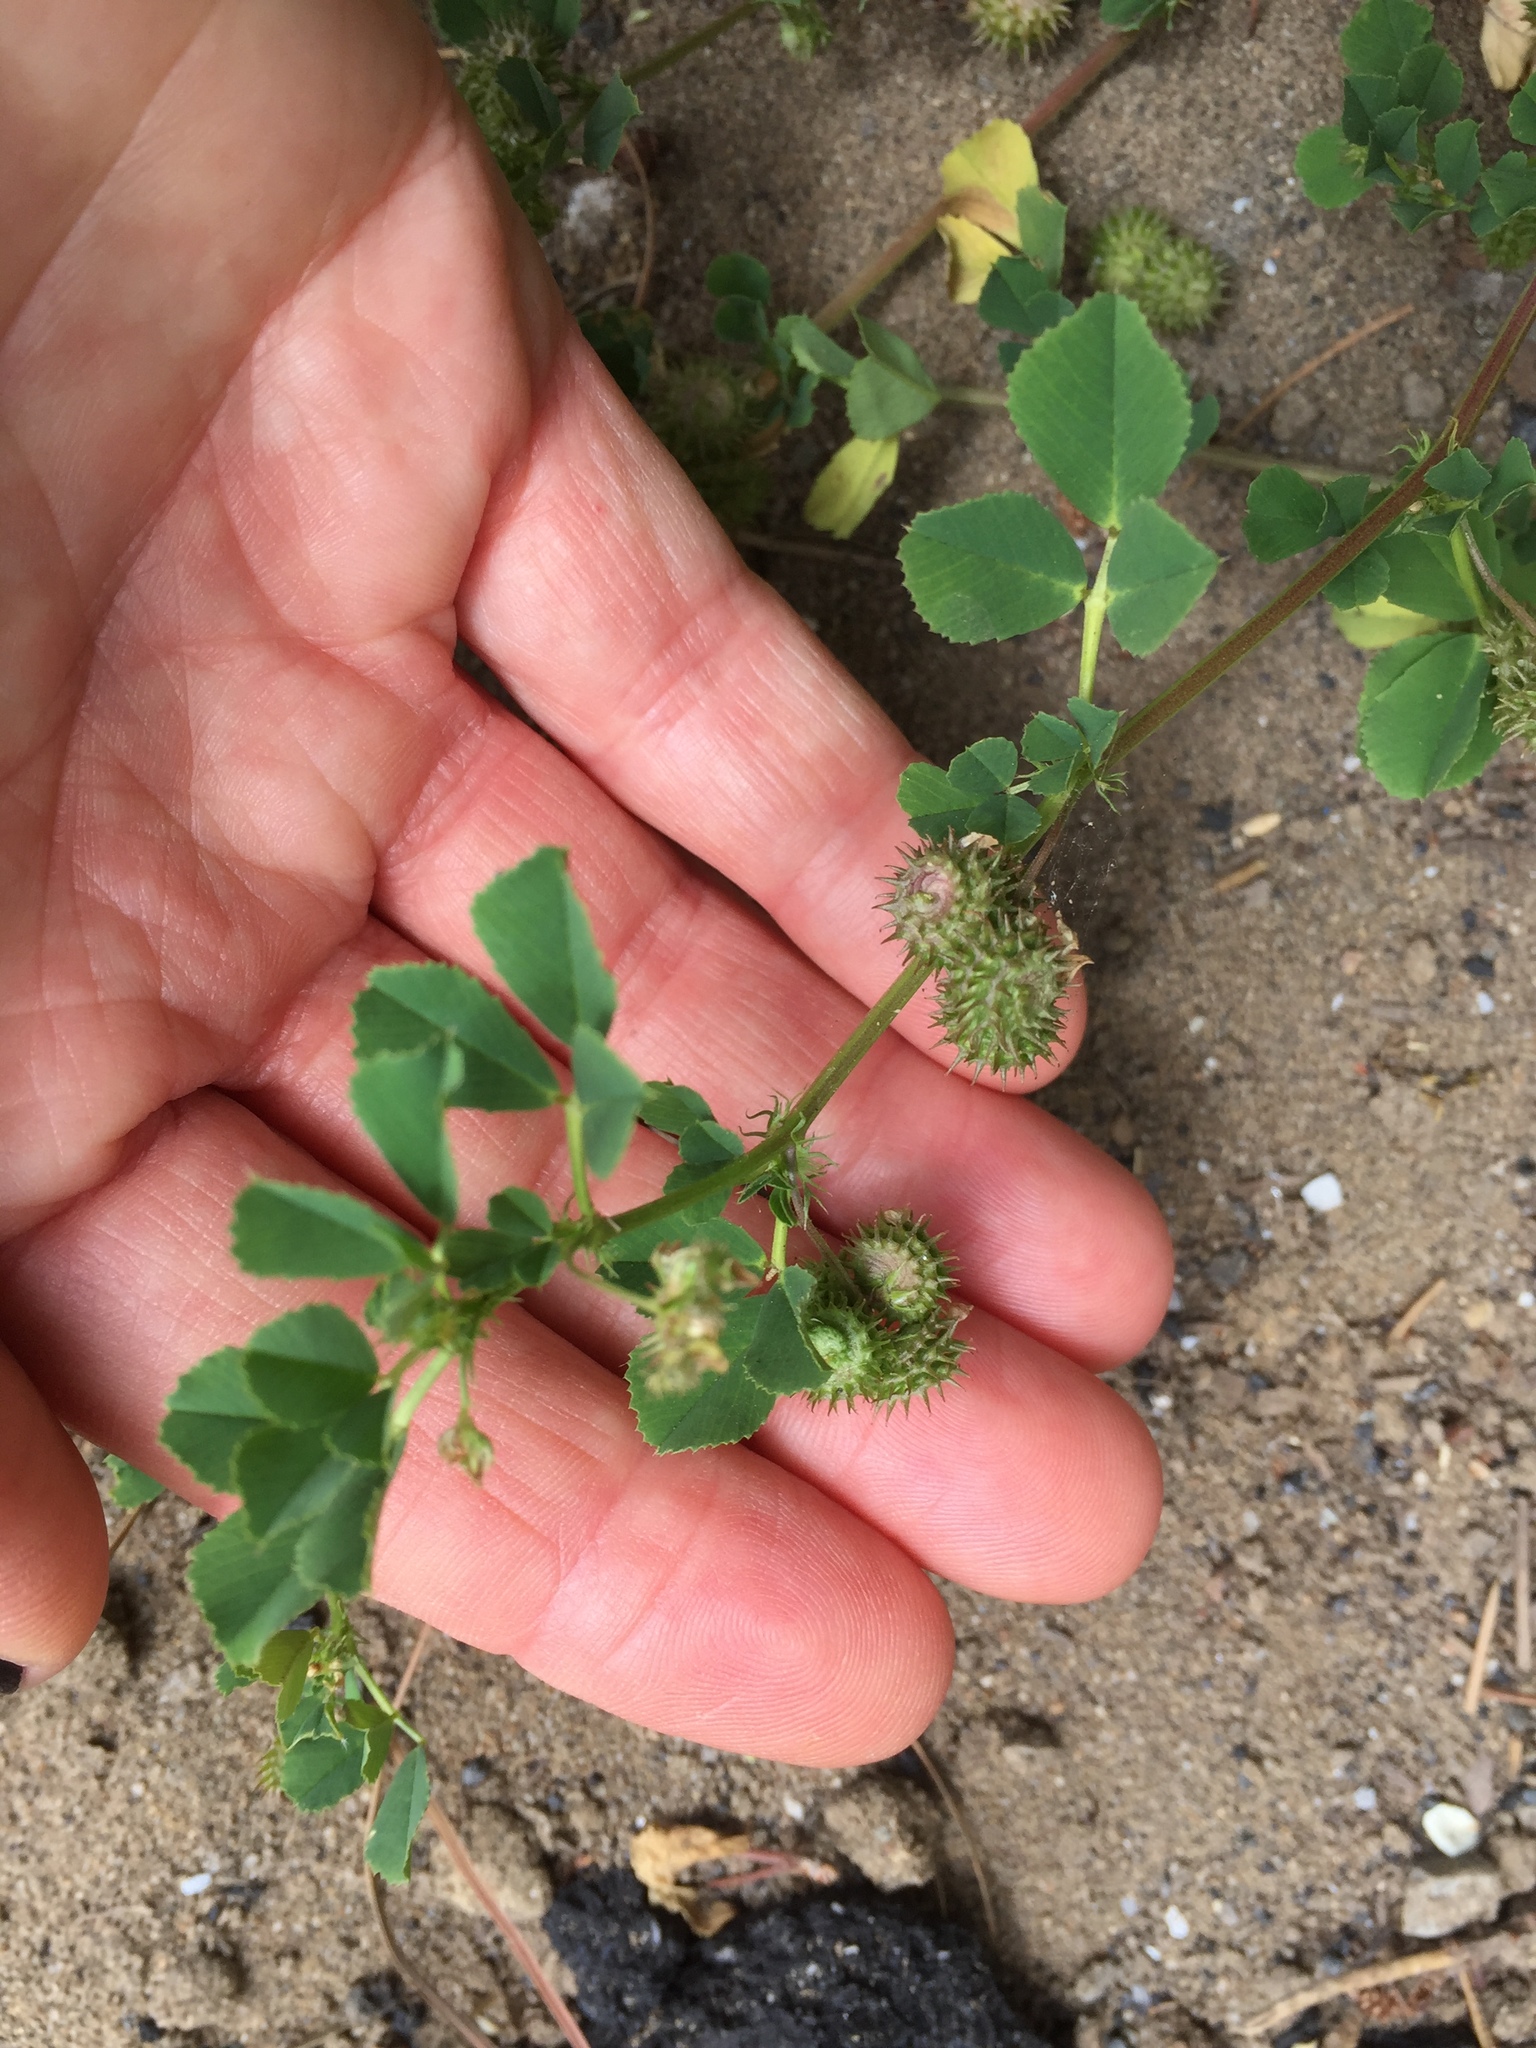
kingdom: Plantae
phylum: Tracheophyta
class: Magnoliopsida
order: Fabales
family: Fabaceae
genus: Medicago
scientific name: Medicago polymorpha
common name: Burclover
